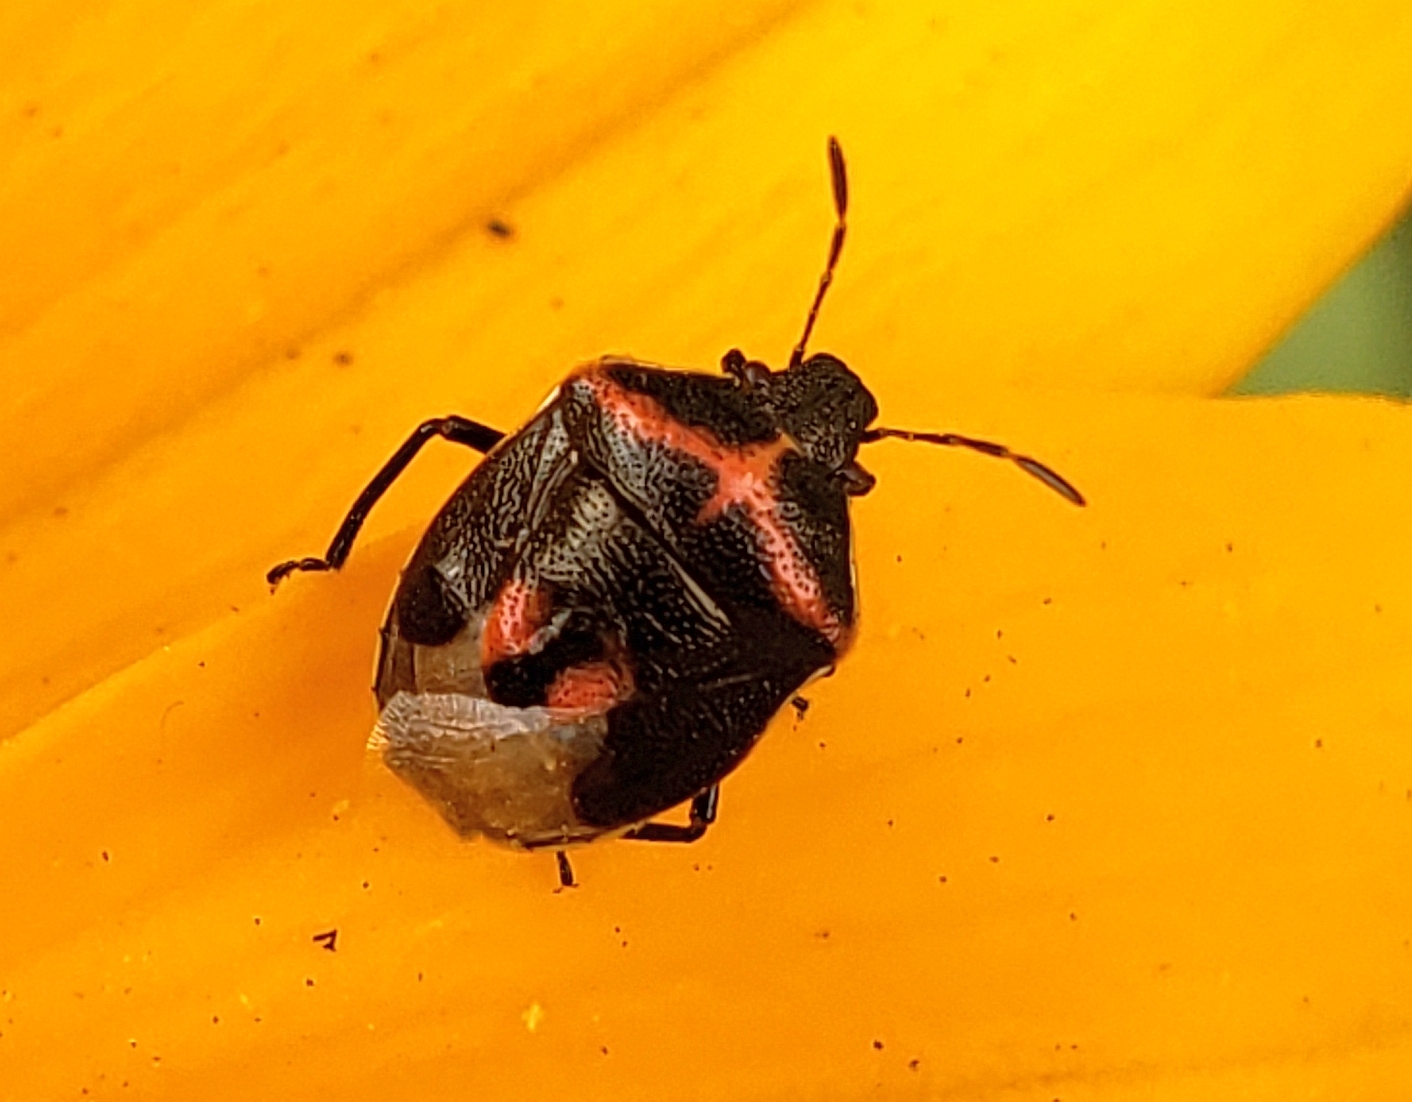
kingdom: Animalia
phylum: Arthropoda
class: Insecta
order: Hemiptera
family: Pentatomidae
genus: Cosmopepla
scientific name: Cosmopepla lintneriana
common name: Twice-stabbed stink bug
